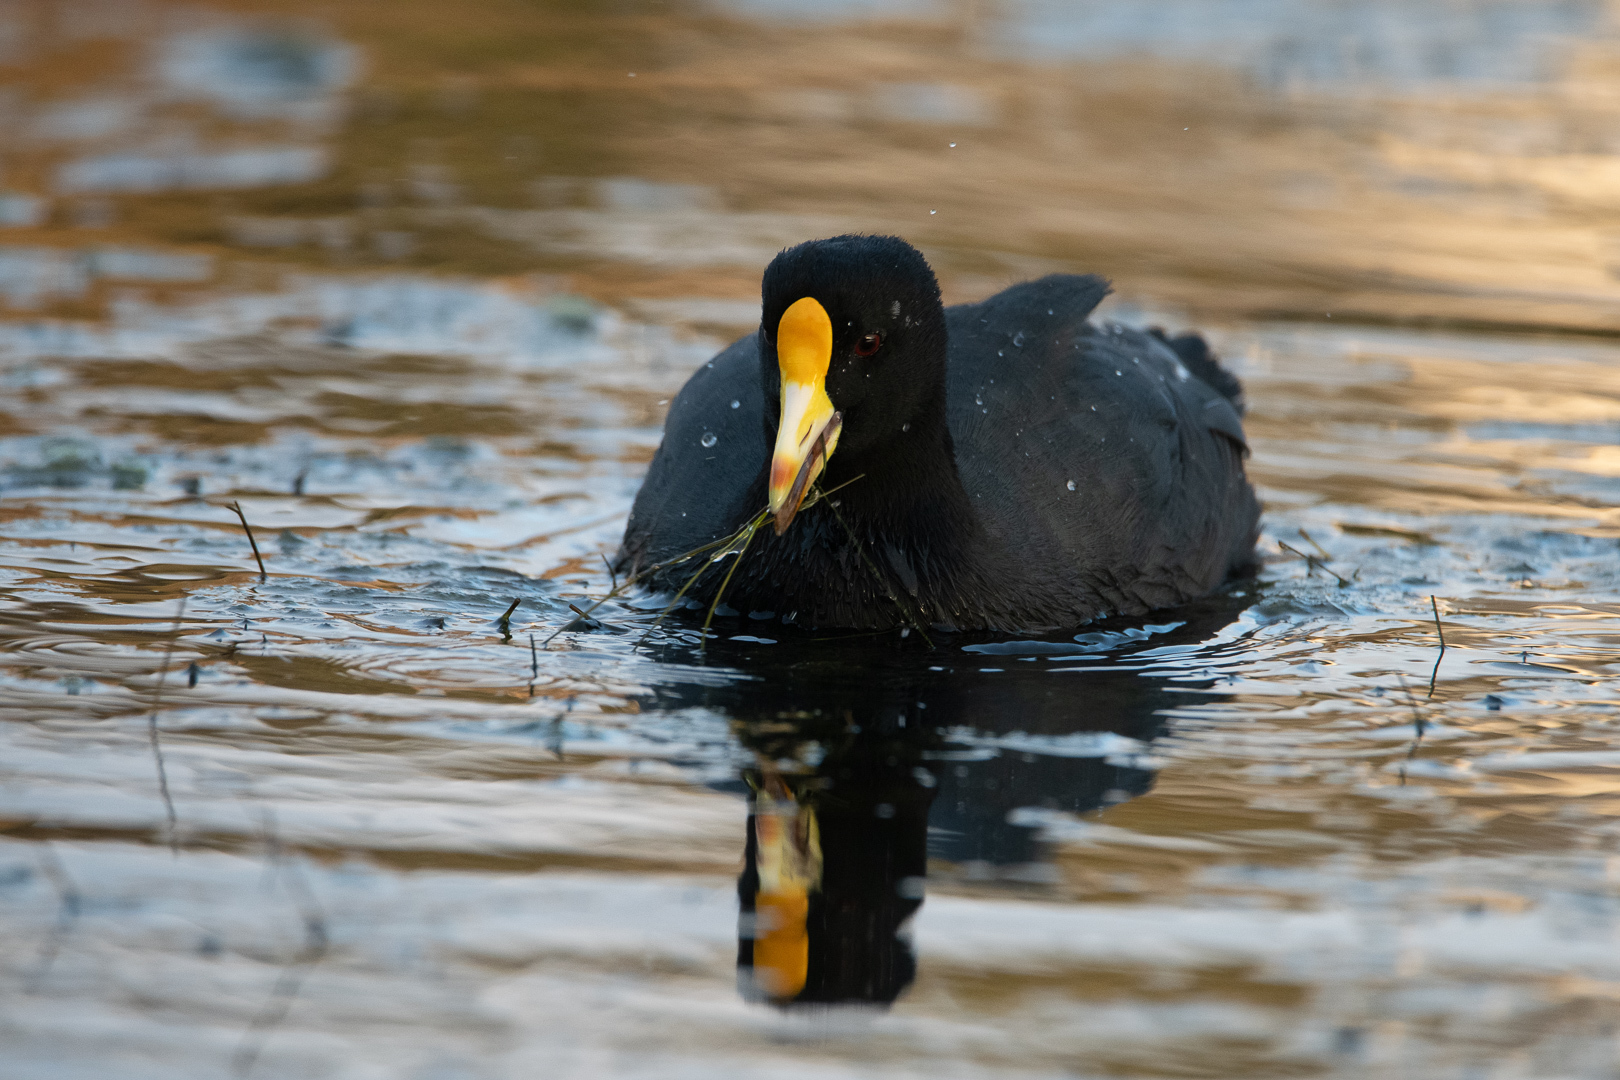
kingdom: Animalia
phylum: Chordata
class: Aves
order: Gruiformes
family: Rallidae
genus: Fulica
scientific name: Fulica leucoptera
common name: White-winged coot
